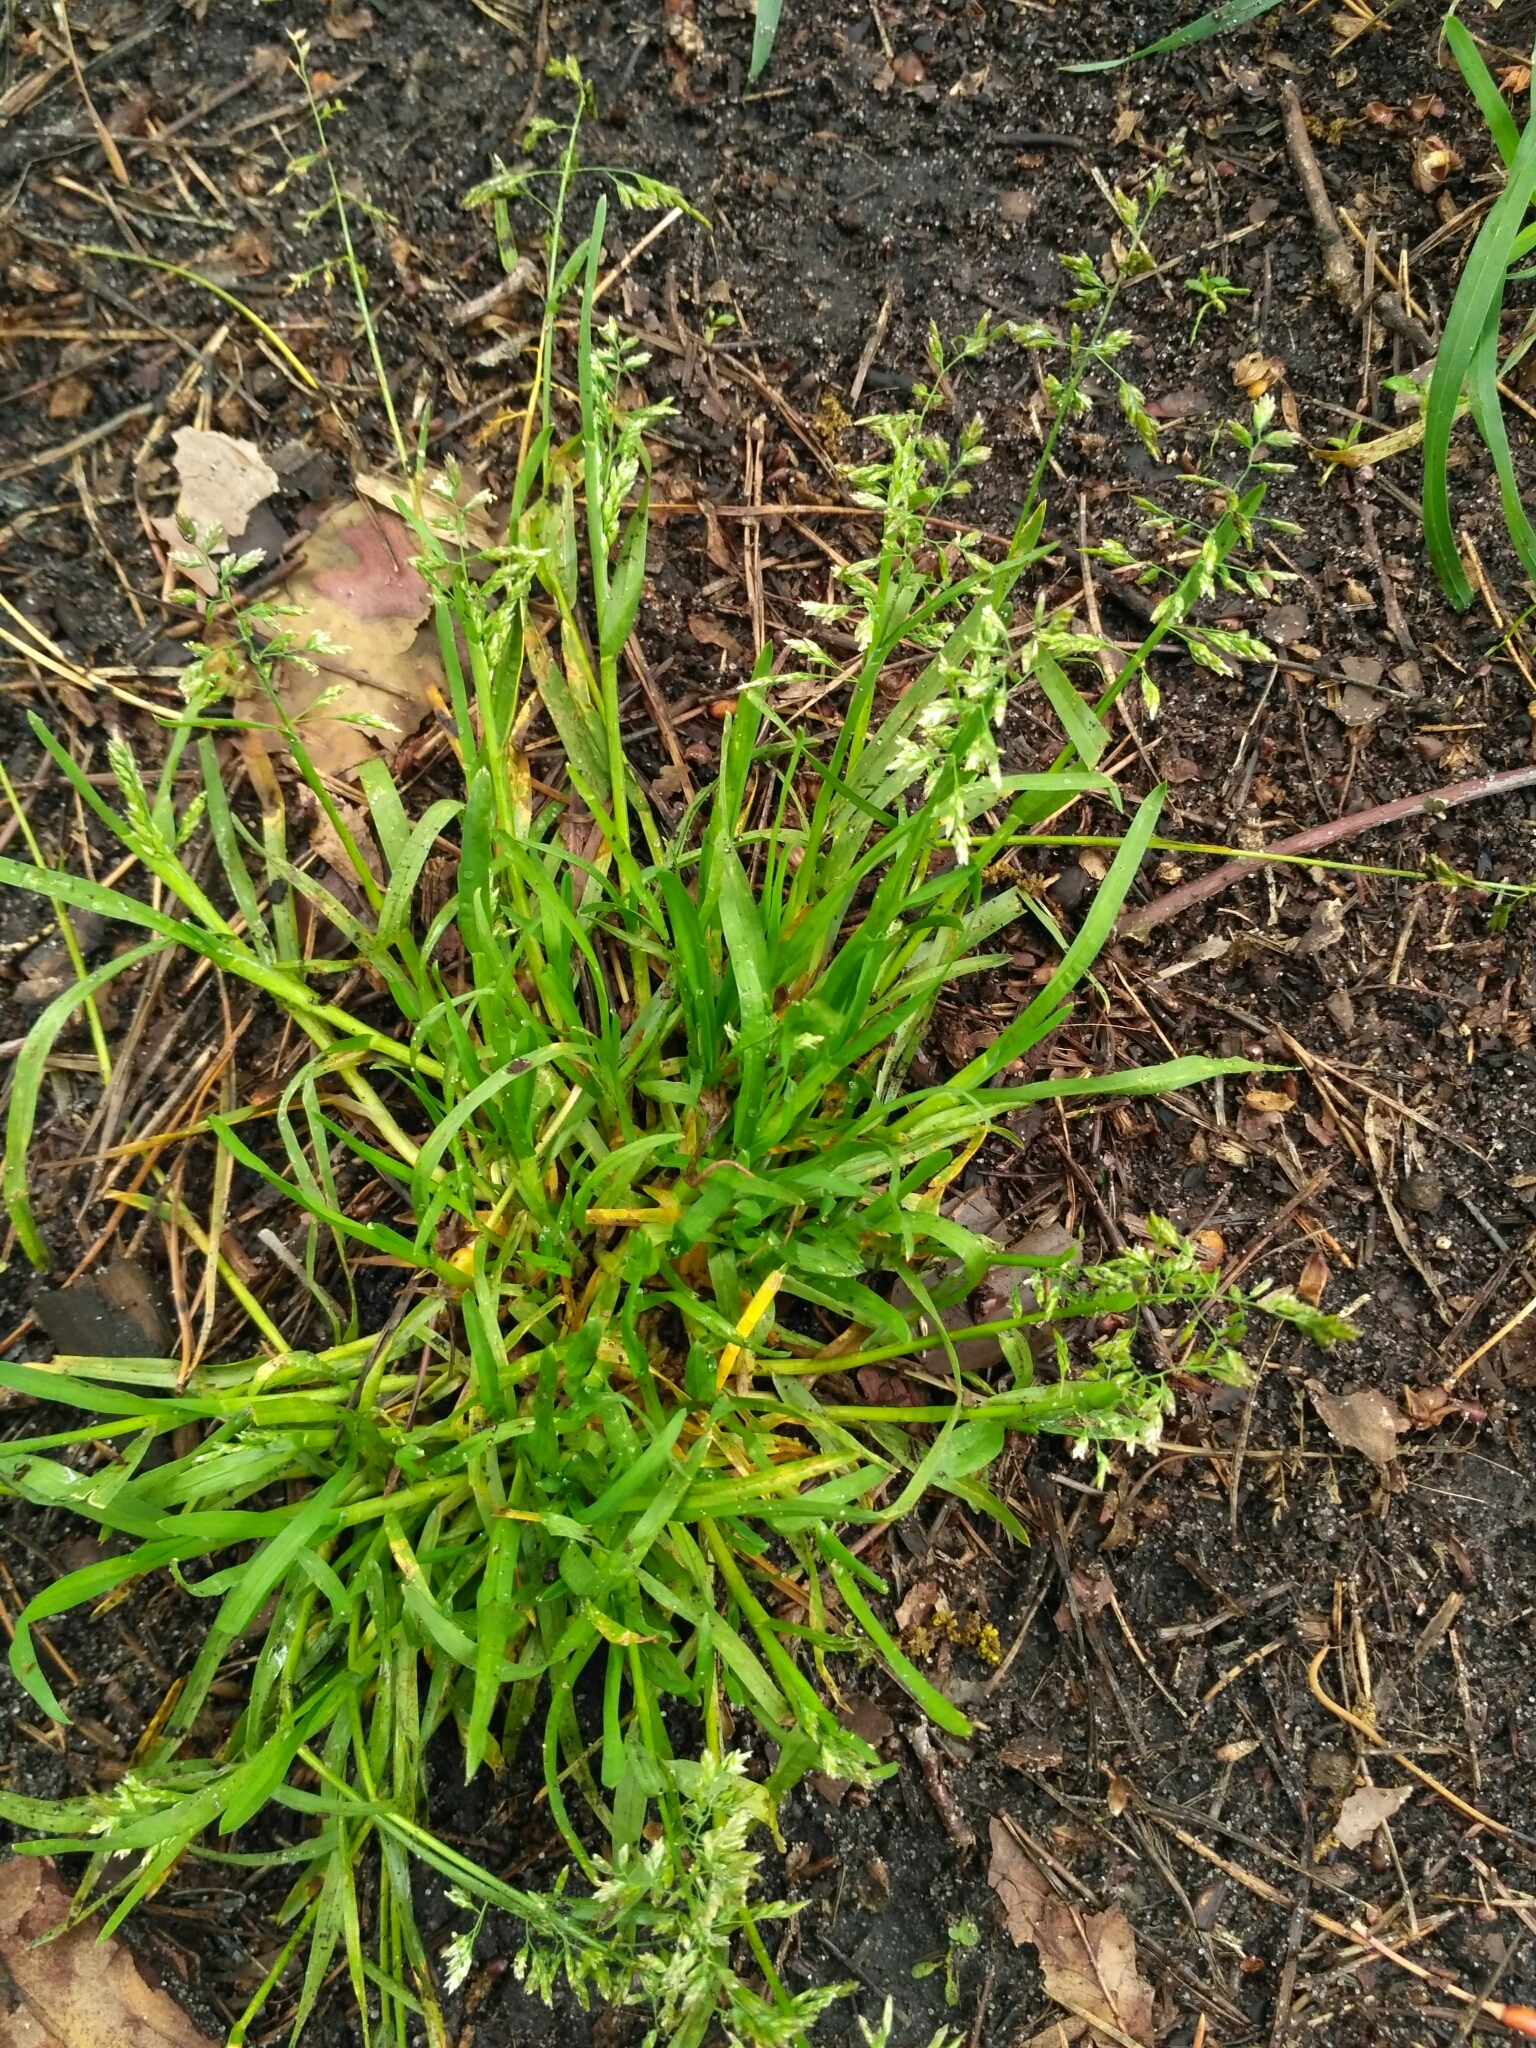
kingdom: Plantae
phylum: Tracheophyta
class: Liliopsida
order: Poales
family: Poaceae
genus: Poa
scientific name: Poa annua
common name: Annual bluegrass
